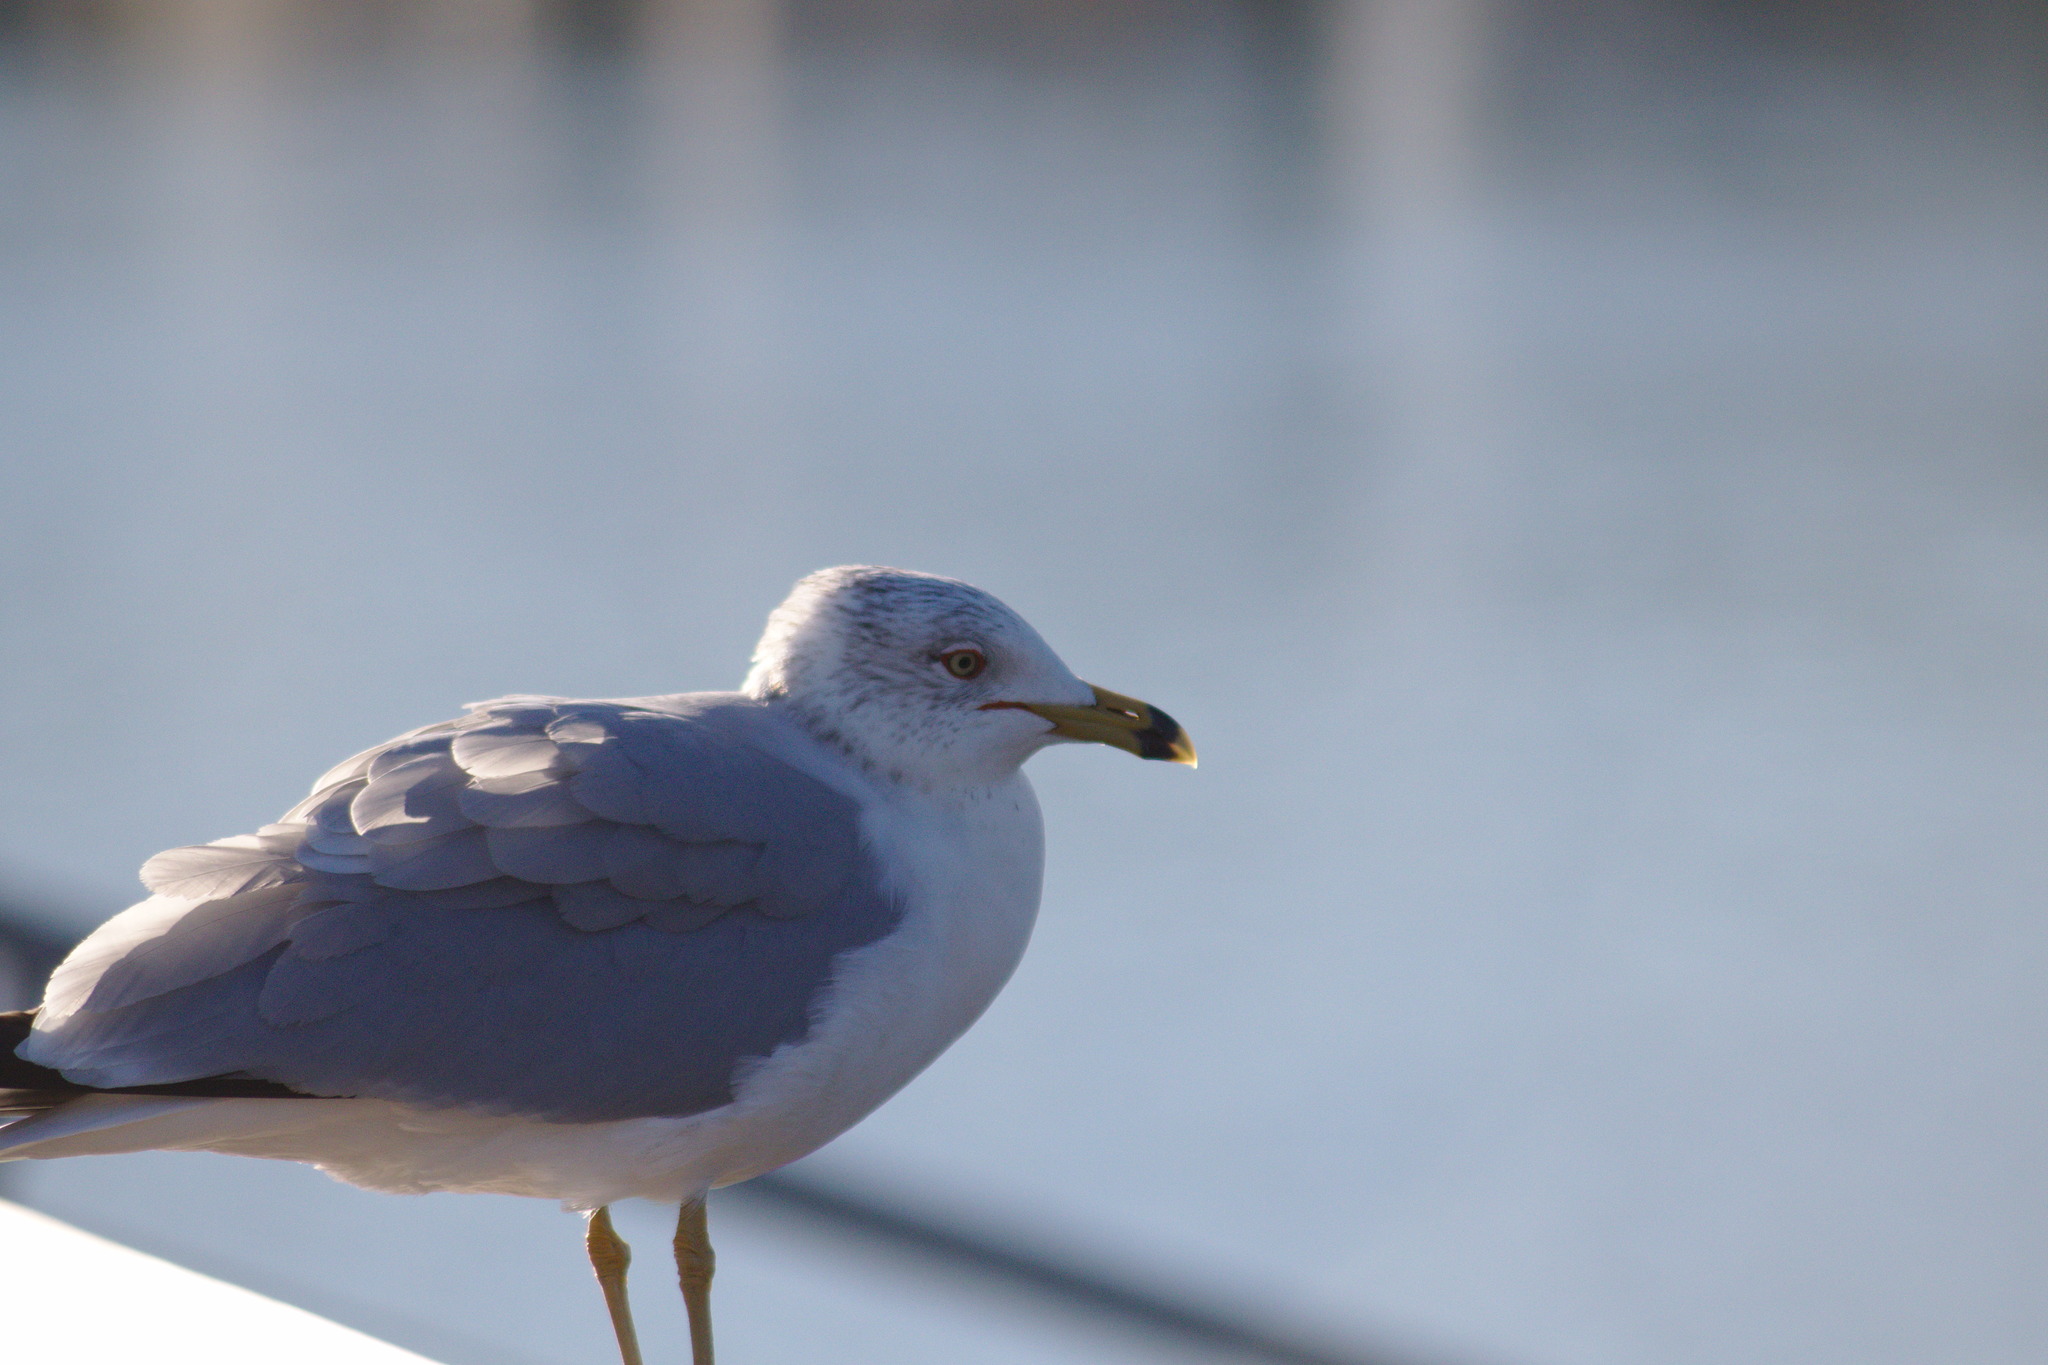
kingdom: Animalia
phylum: Chordata
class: Aves
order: Charadriiformes
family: Laridae
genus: Larus
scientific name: Larus delawarensis
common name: Ring-billed gull
